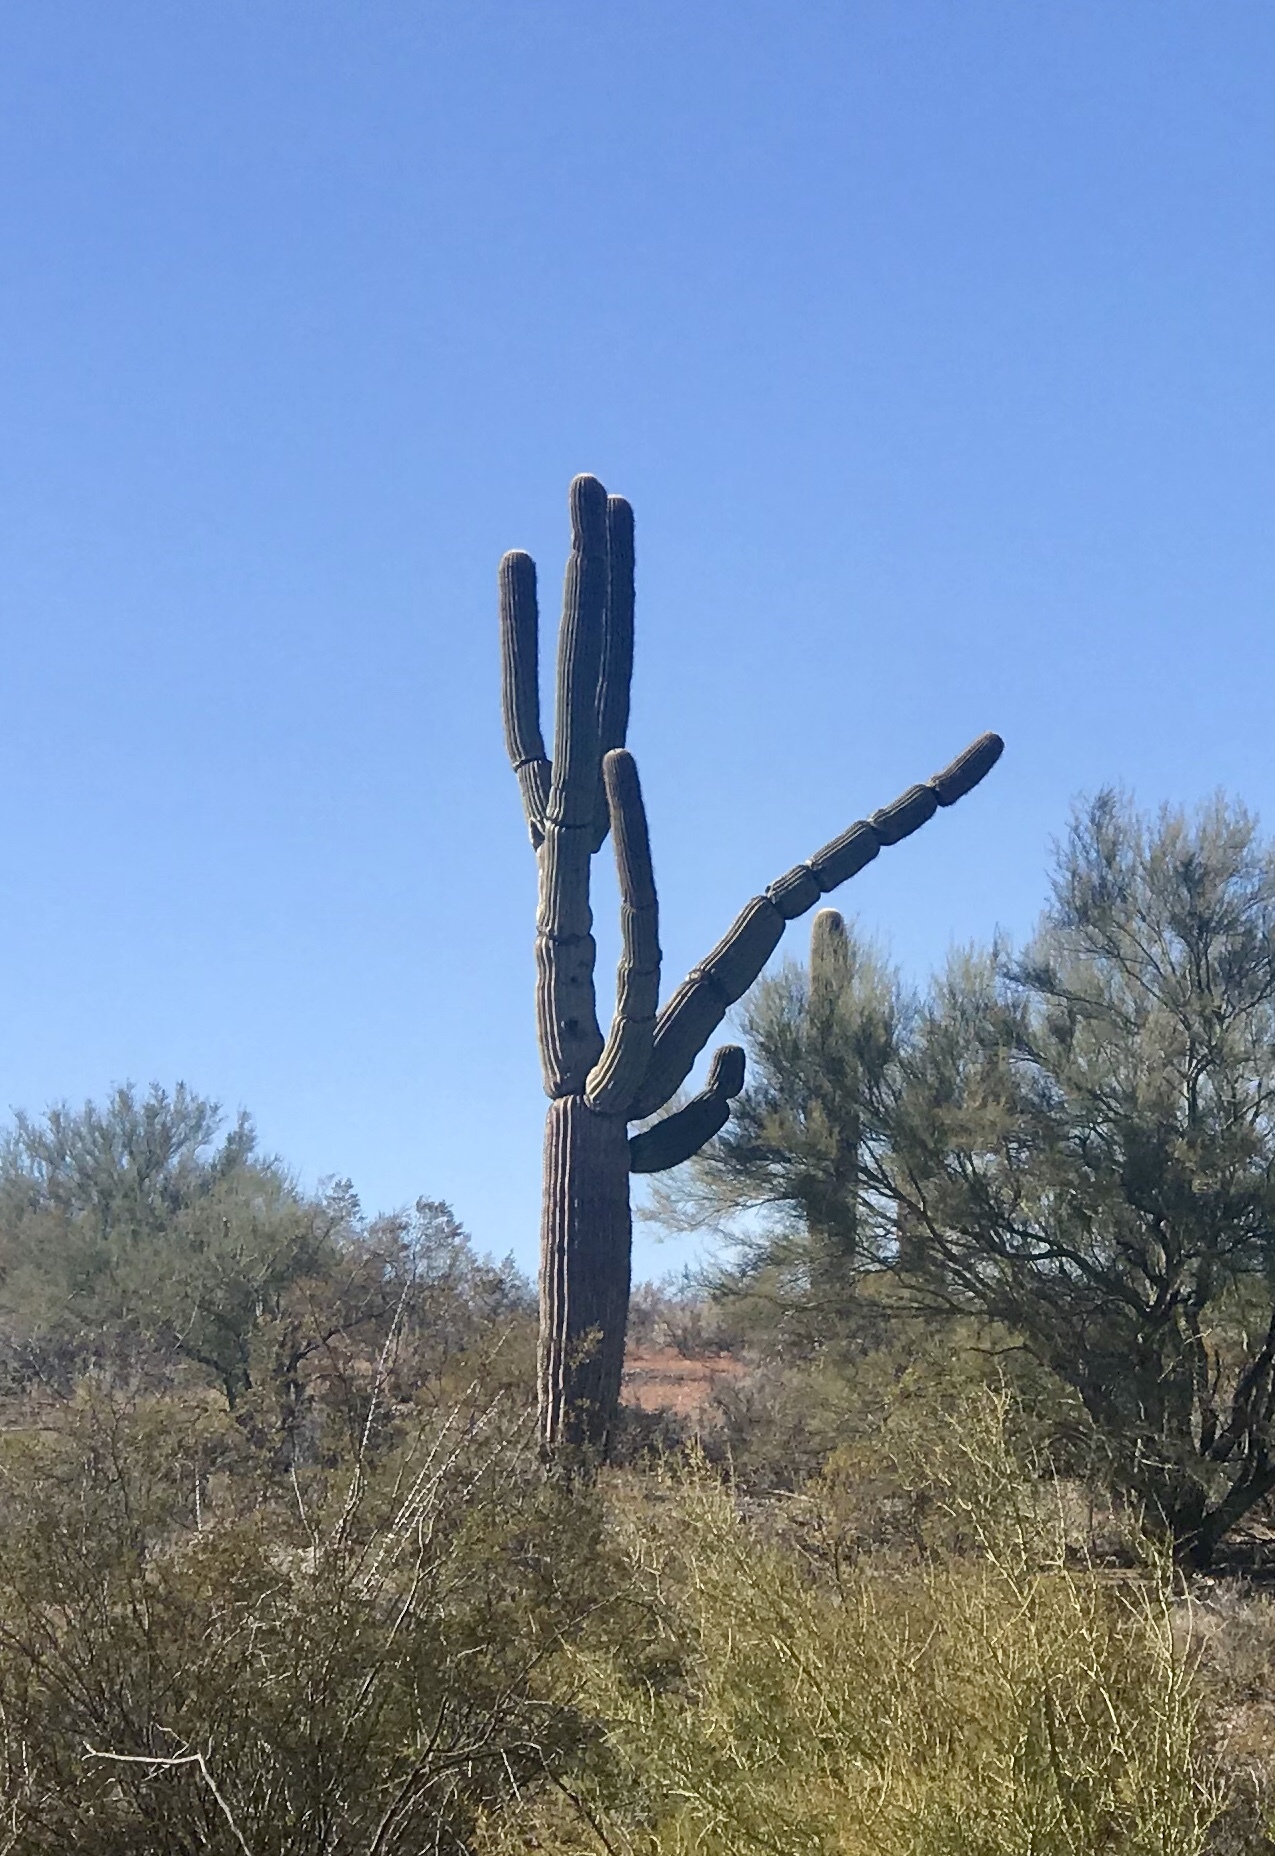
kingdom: Plantae
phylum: Tracheophyta
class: Magnoliopsida
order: Caryophyllales
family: Cactaceae
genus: Carnegiea
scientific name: Carnegiea gigantea
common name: Saguaro
